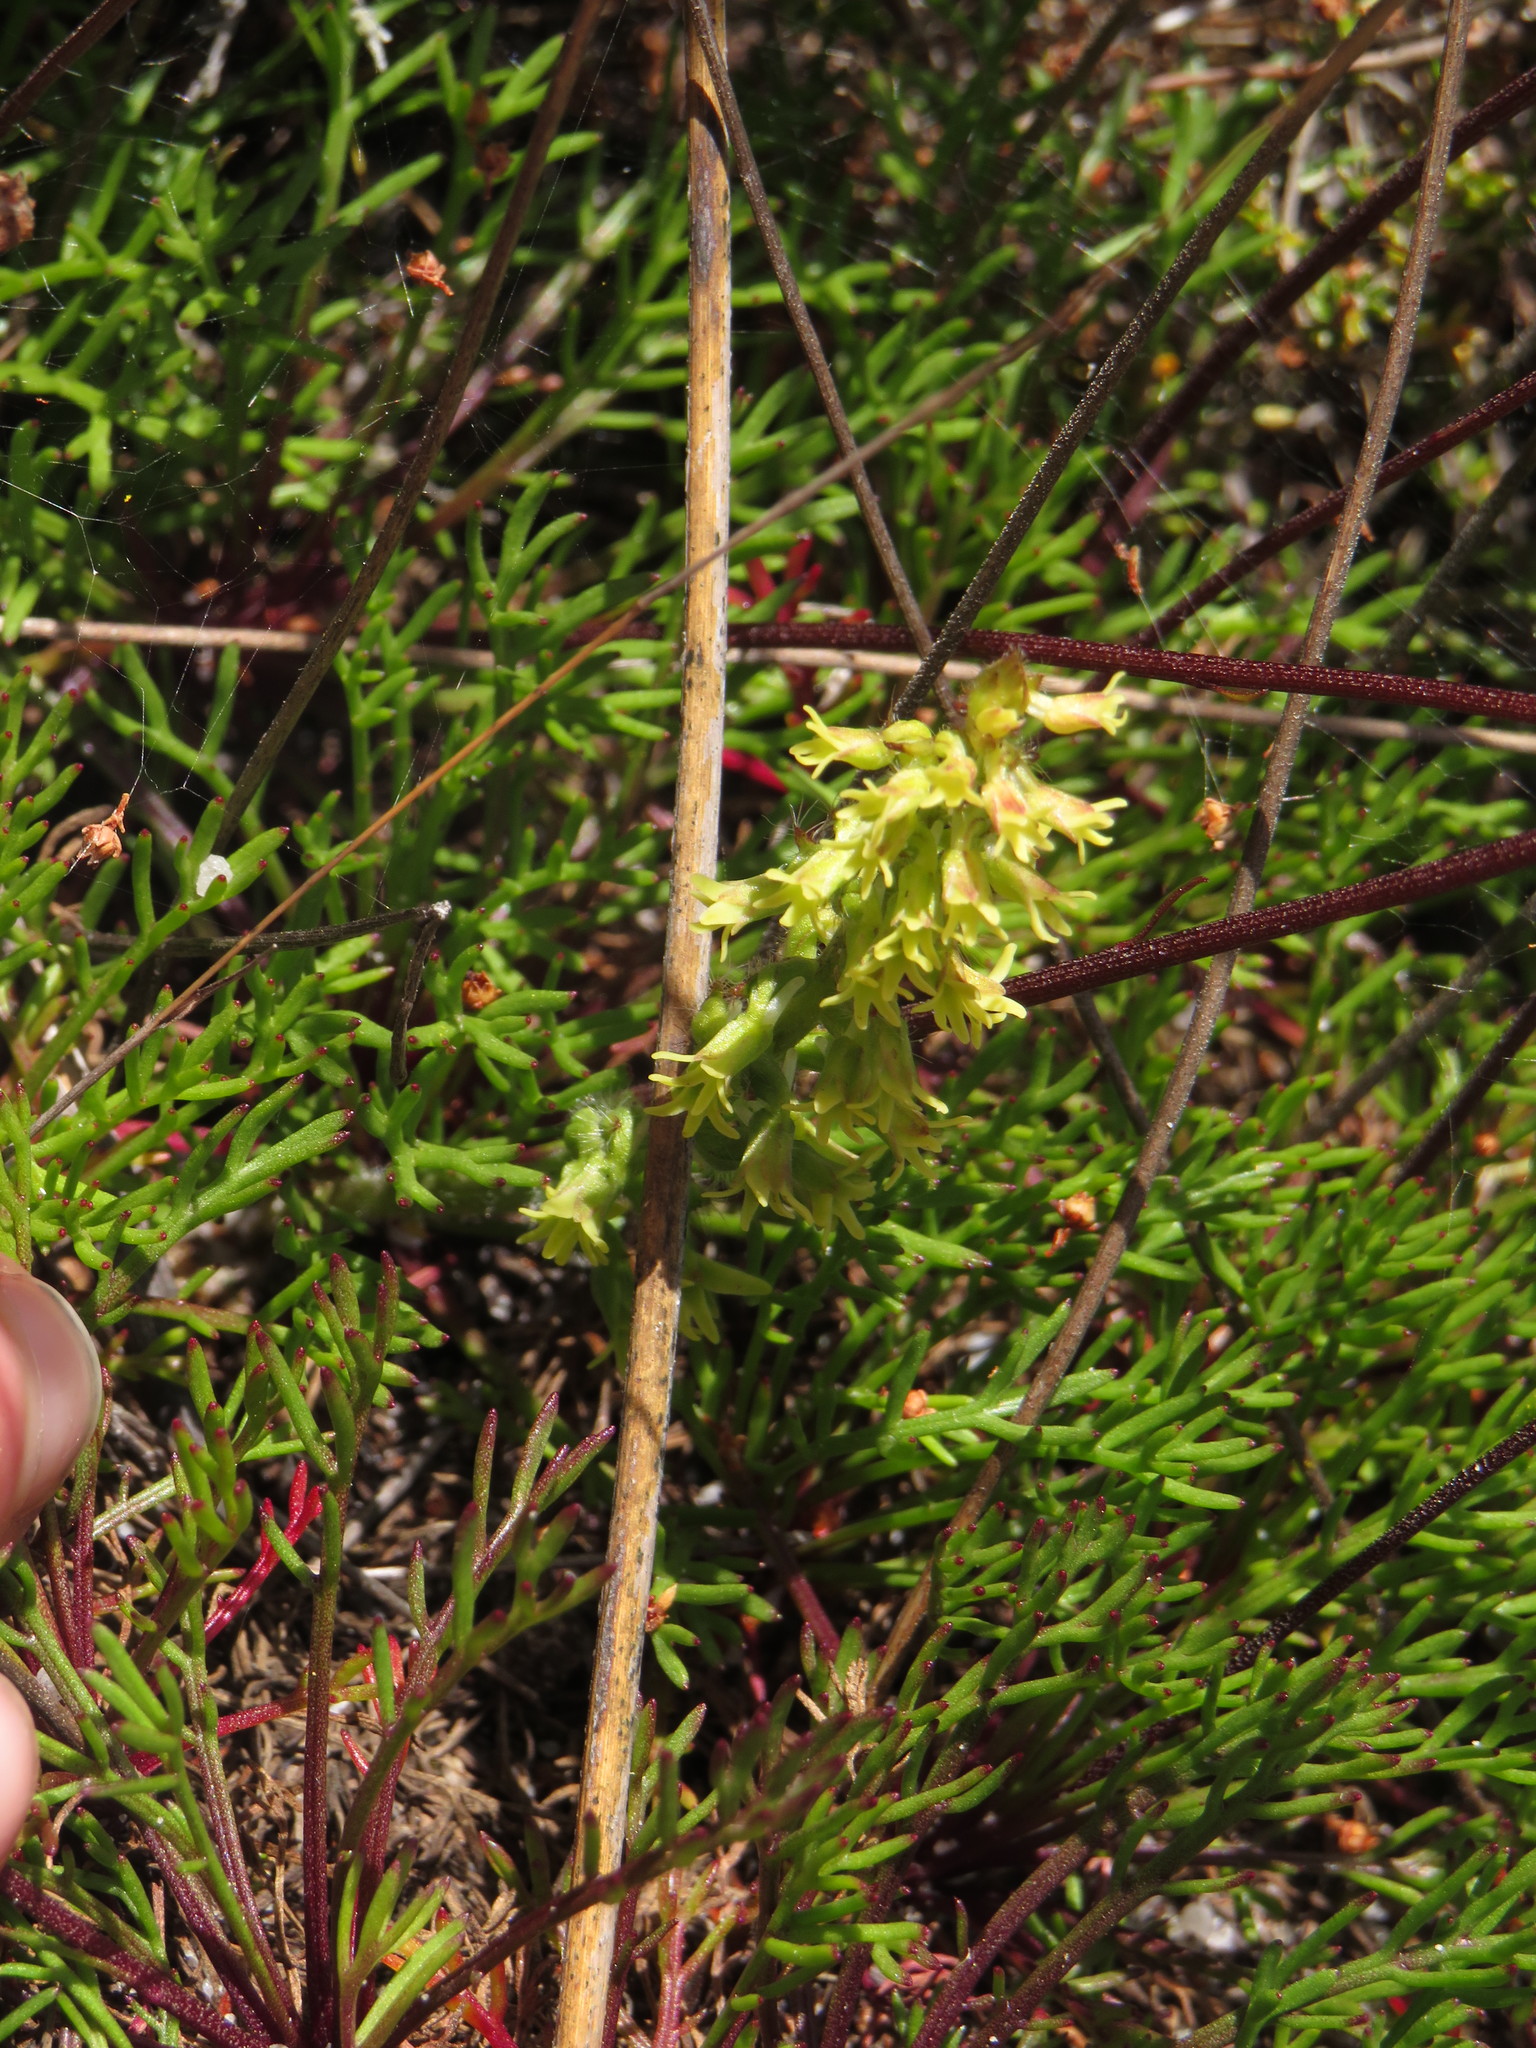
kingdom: Plantae
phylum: Tracheophyta
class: Liliopsida
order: Asparagales
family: Orchidaceae
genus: Holothrix
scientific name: Holothrix condensata
